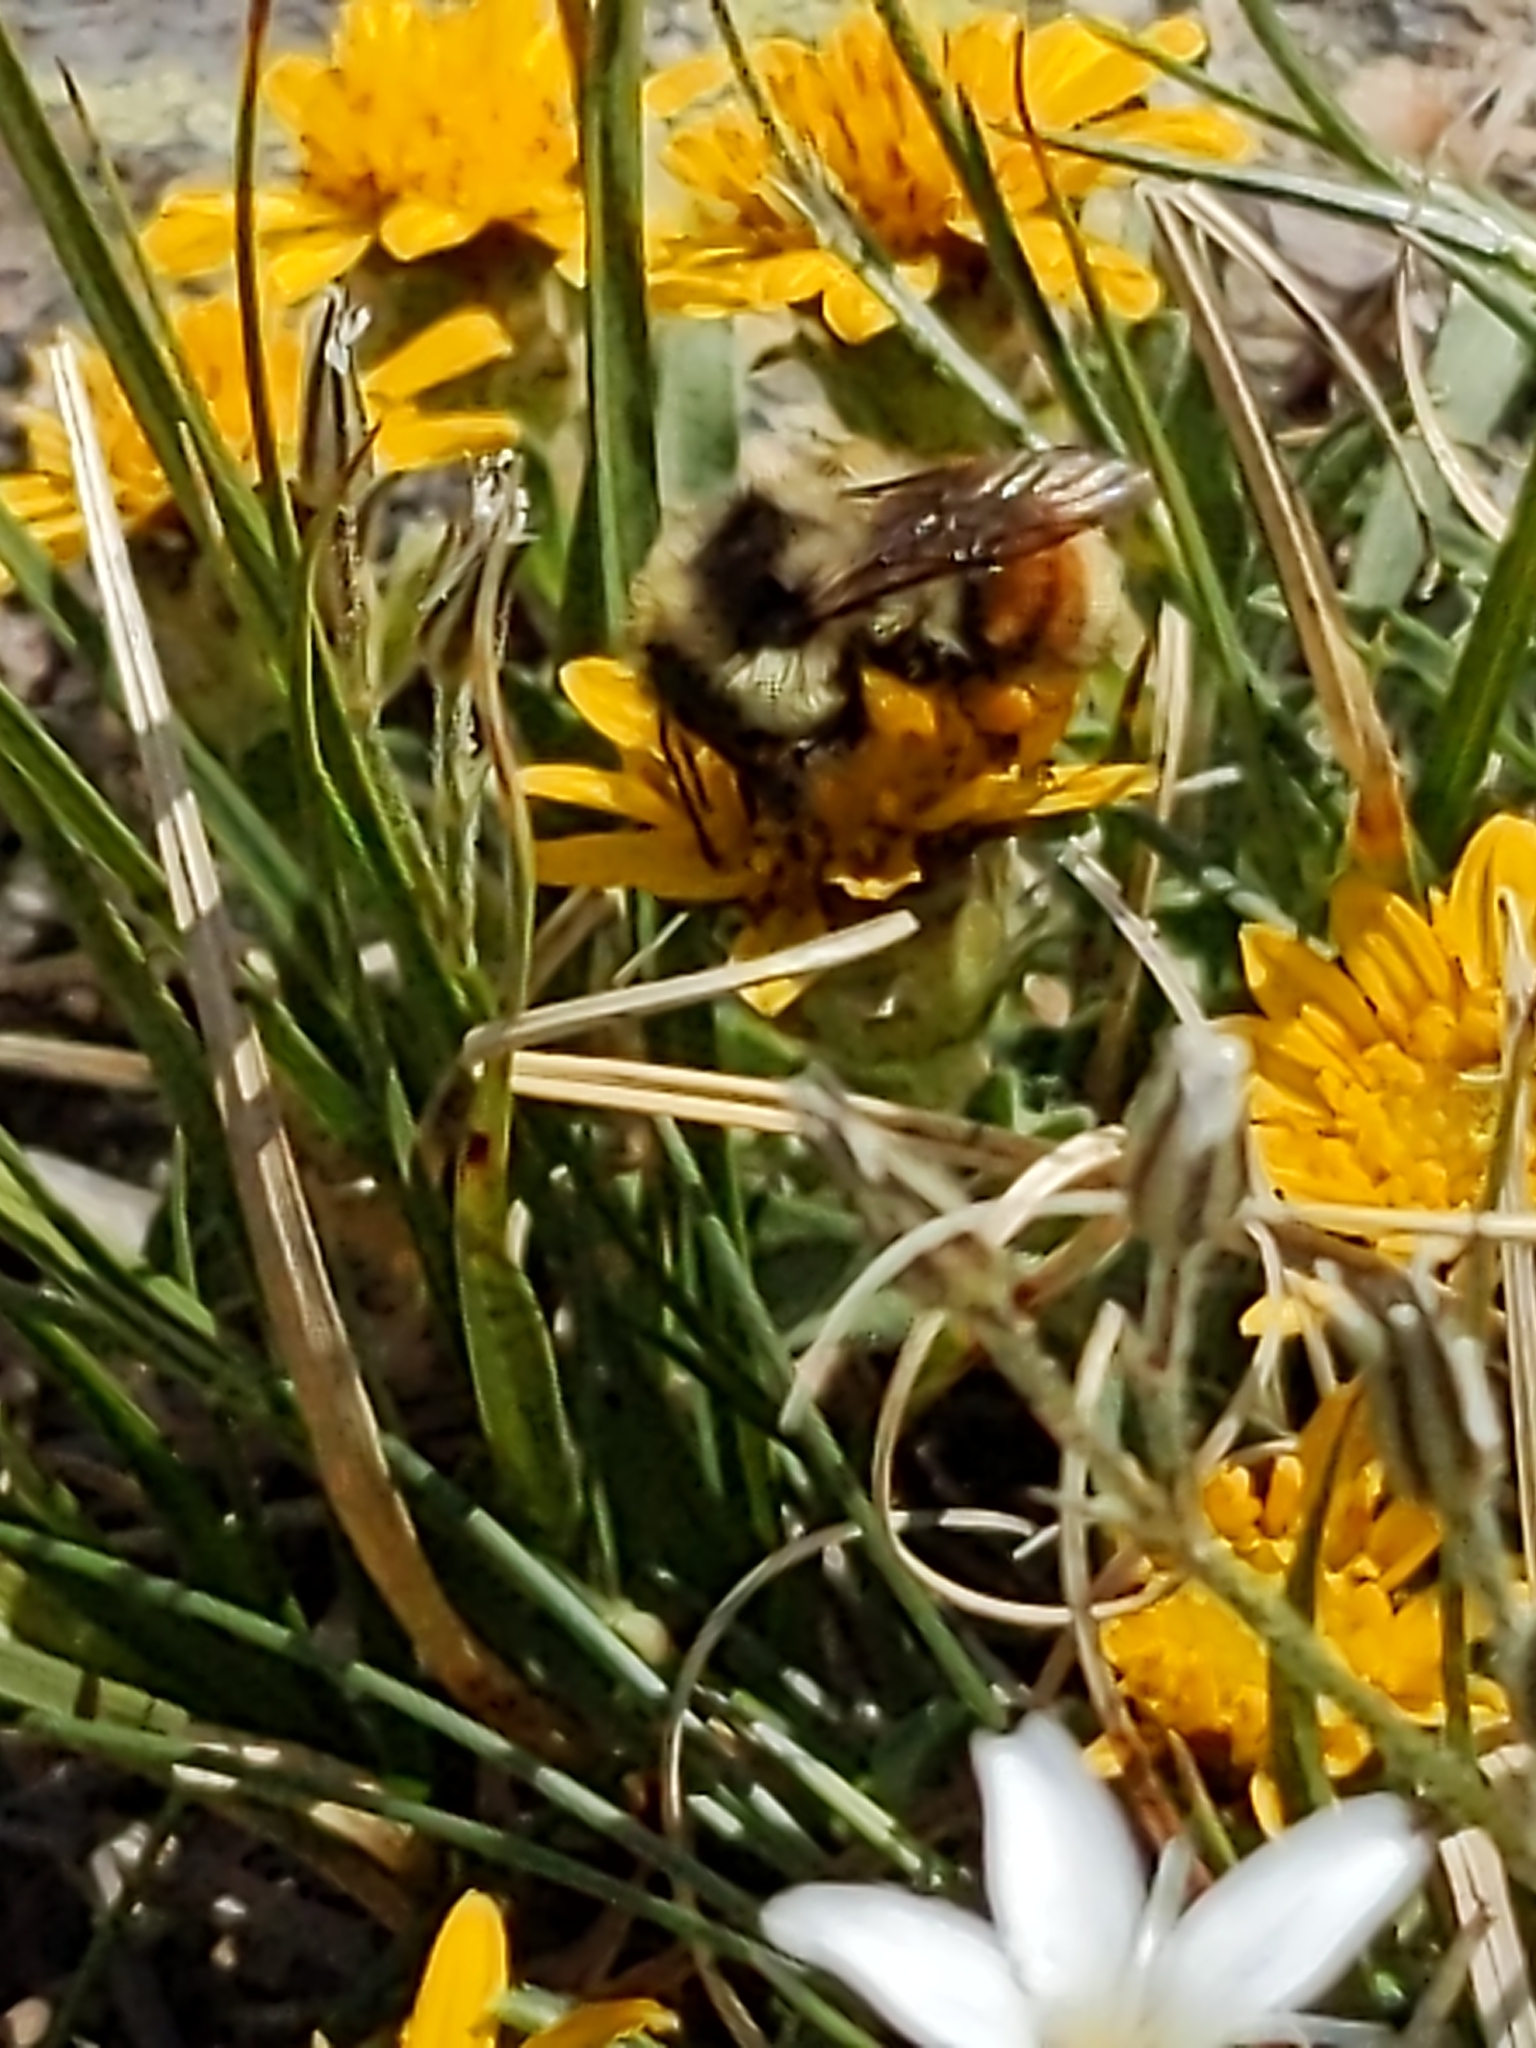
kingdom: Animalia
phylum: Arthropoda
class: Insecta
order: Hymenoptera
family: Apidae
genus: Bombus
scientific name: Bombus bifarius
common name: Two form bumble bee
